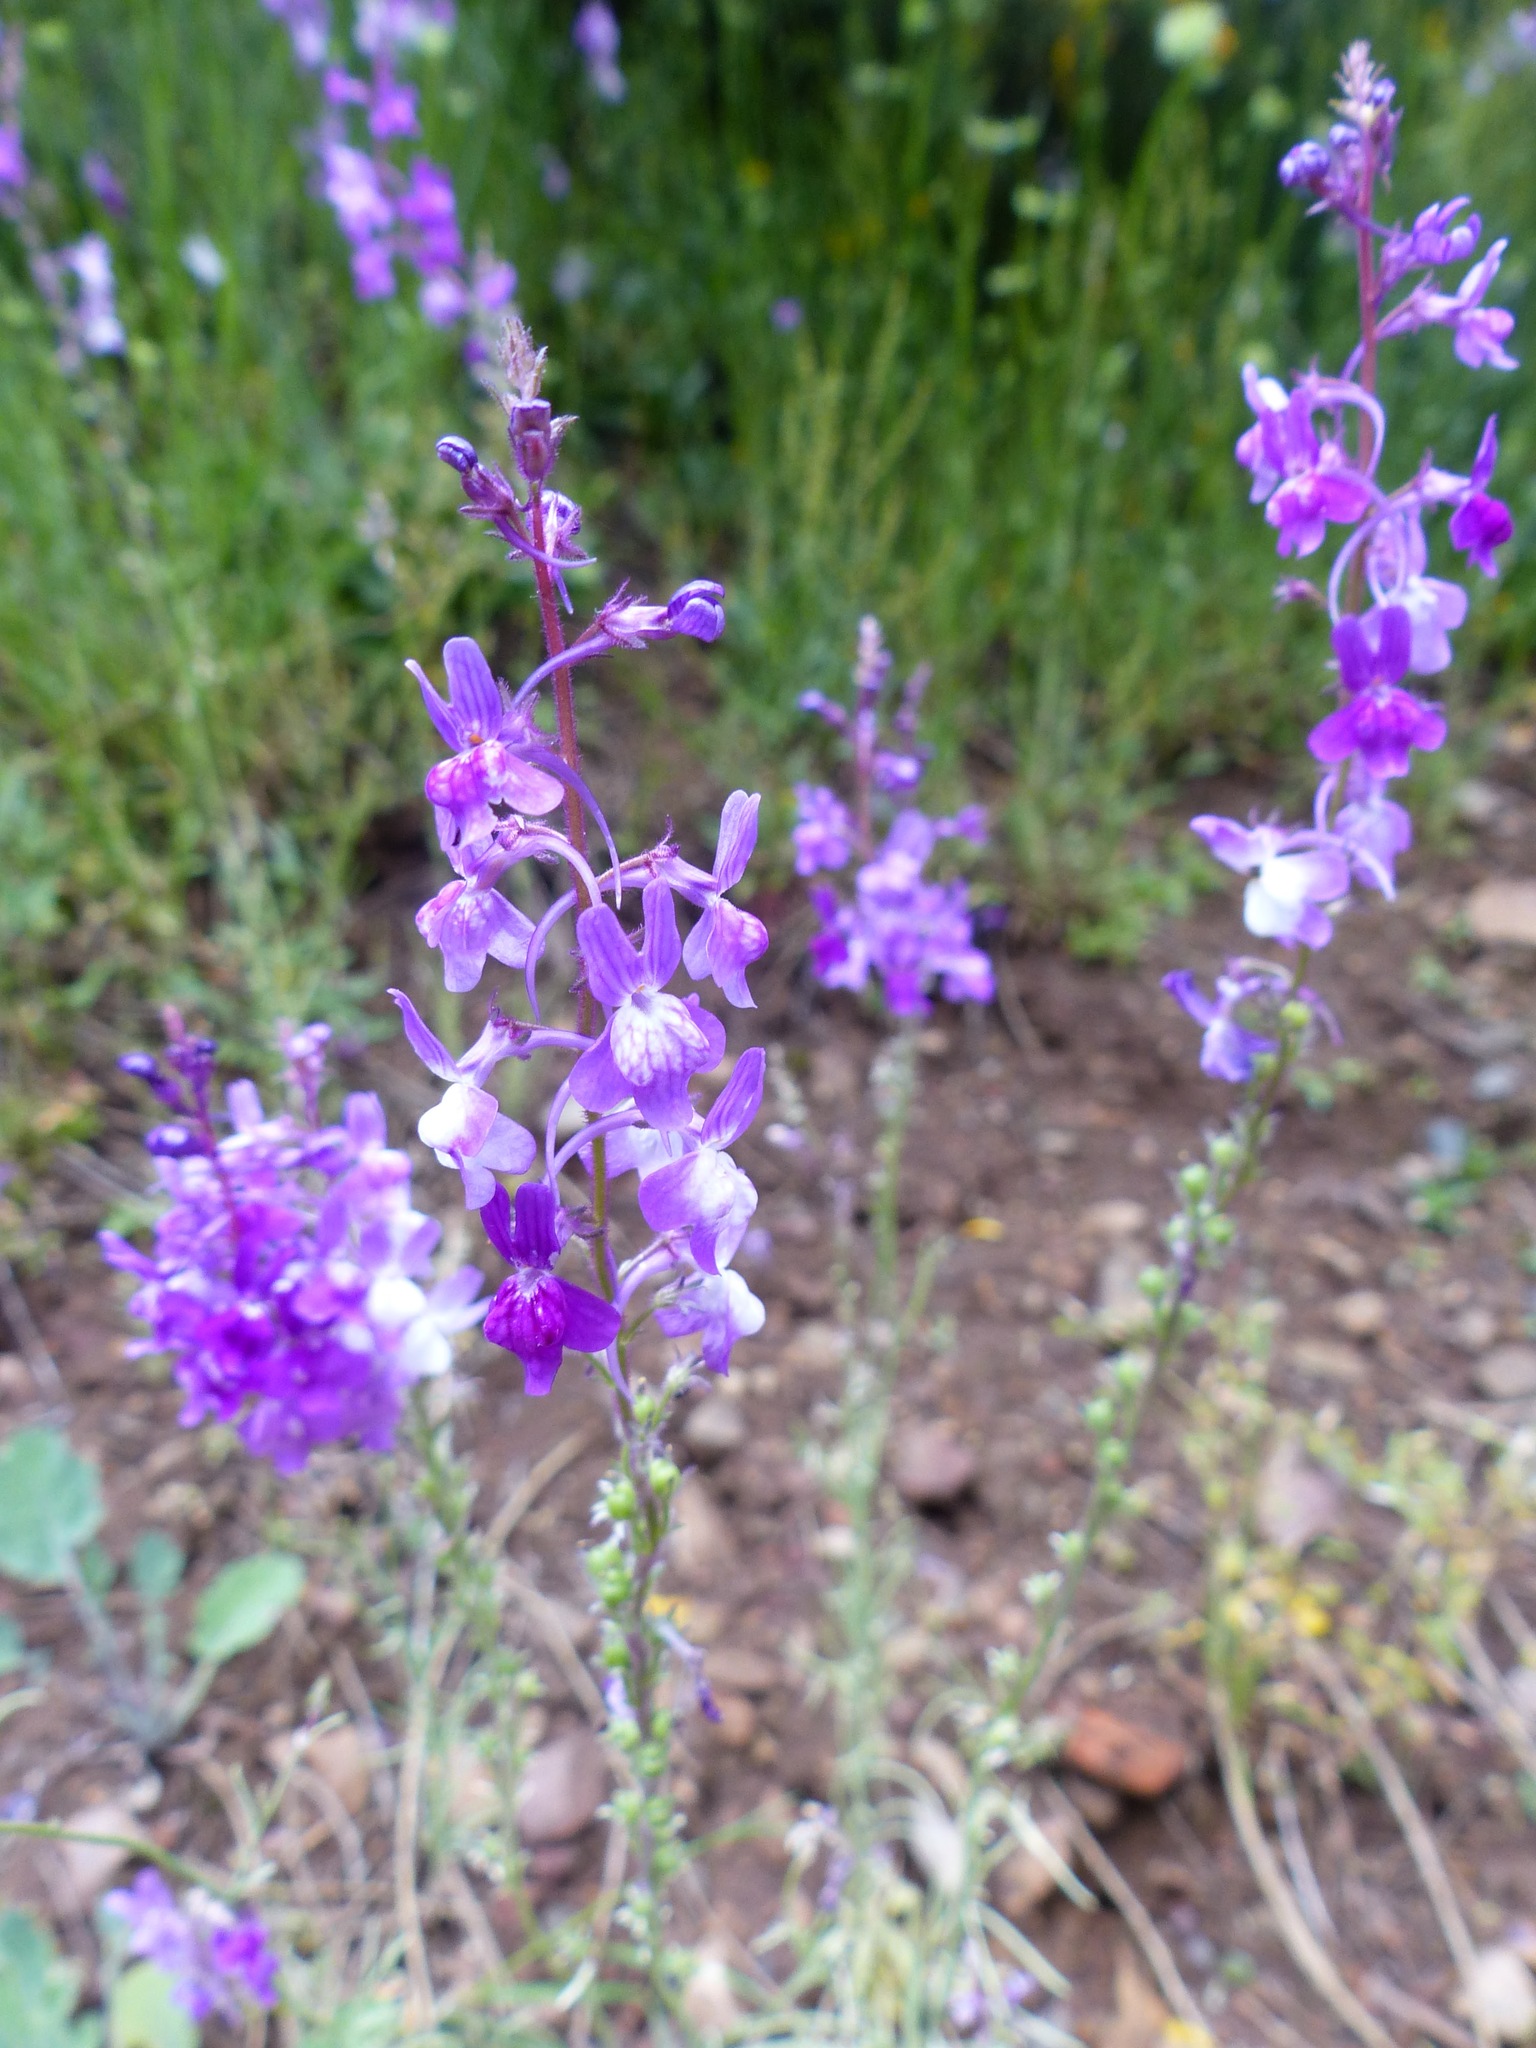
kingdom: Plantae
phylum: Tracheophyta
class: Magnoliopsida
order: Lamiales
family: Plantaginaceae
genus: Linaria
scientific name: Linaria elegans
